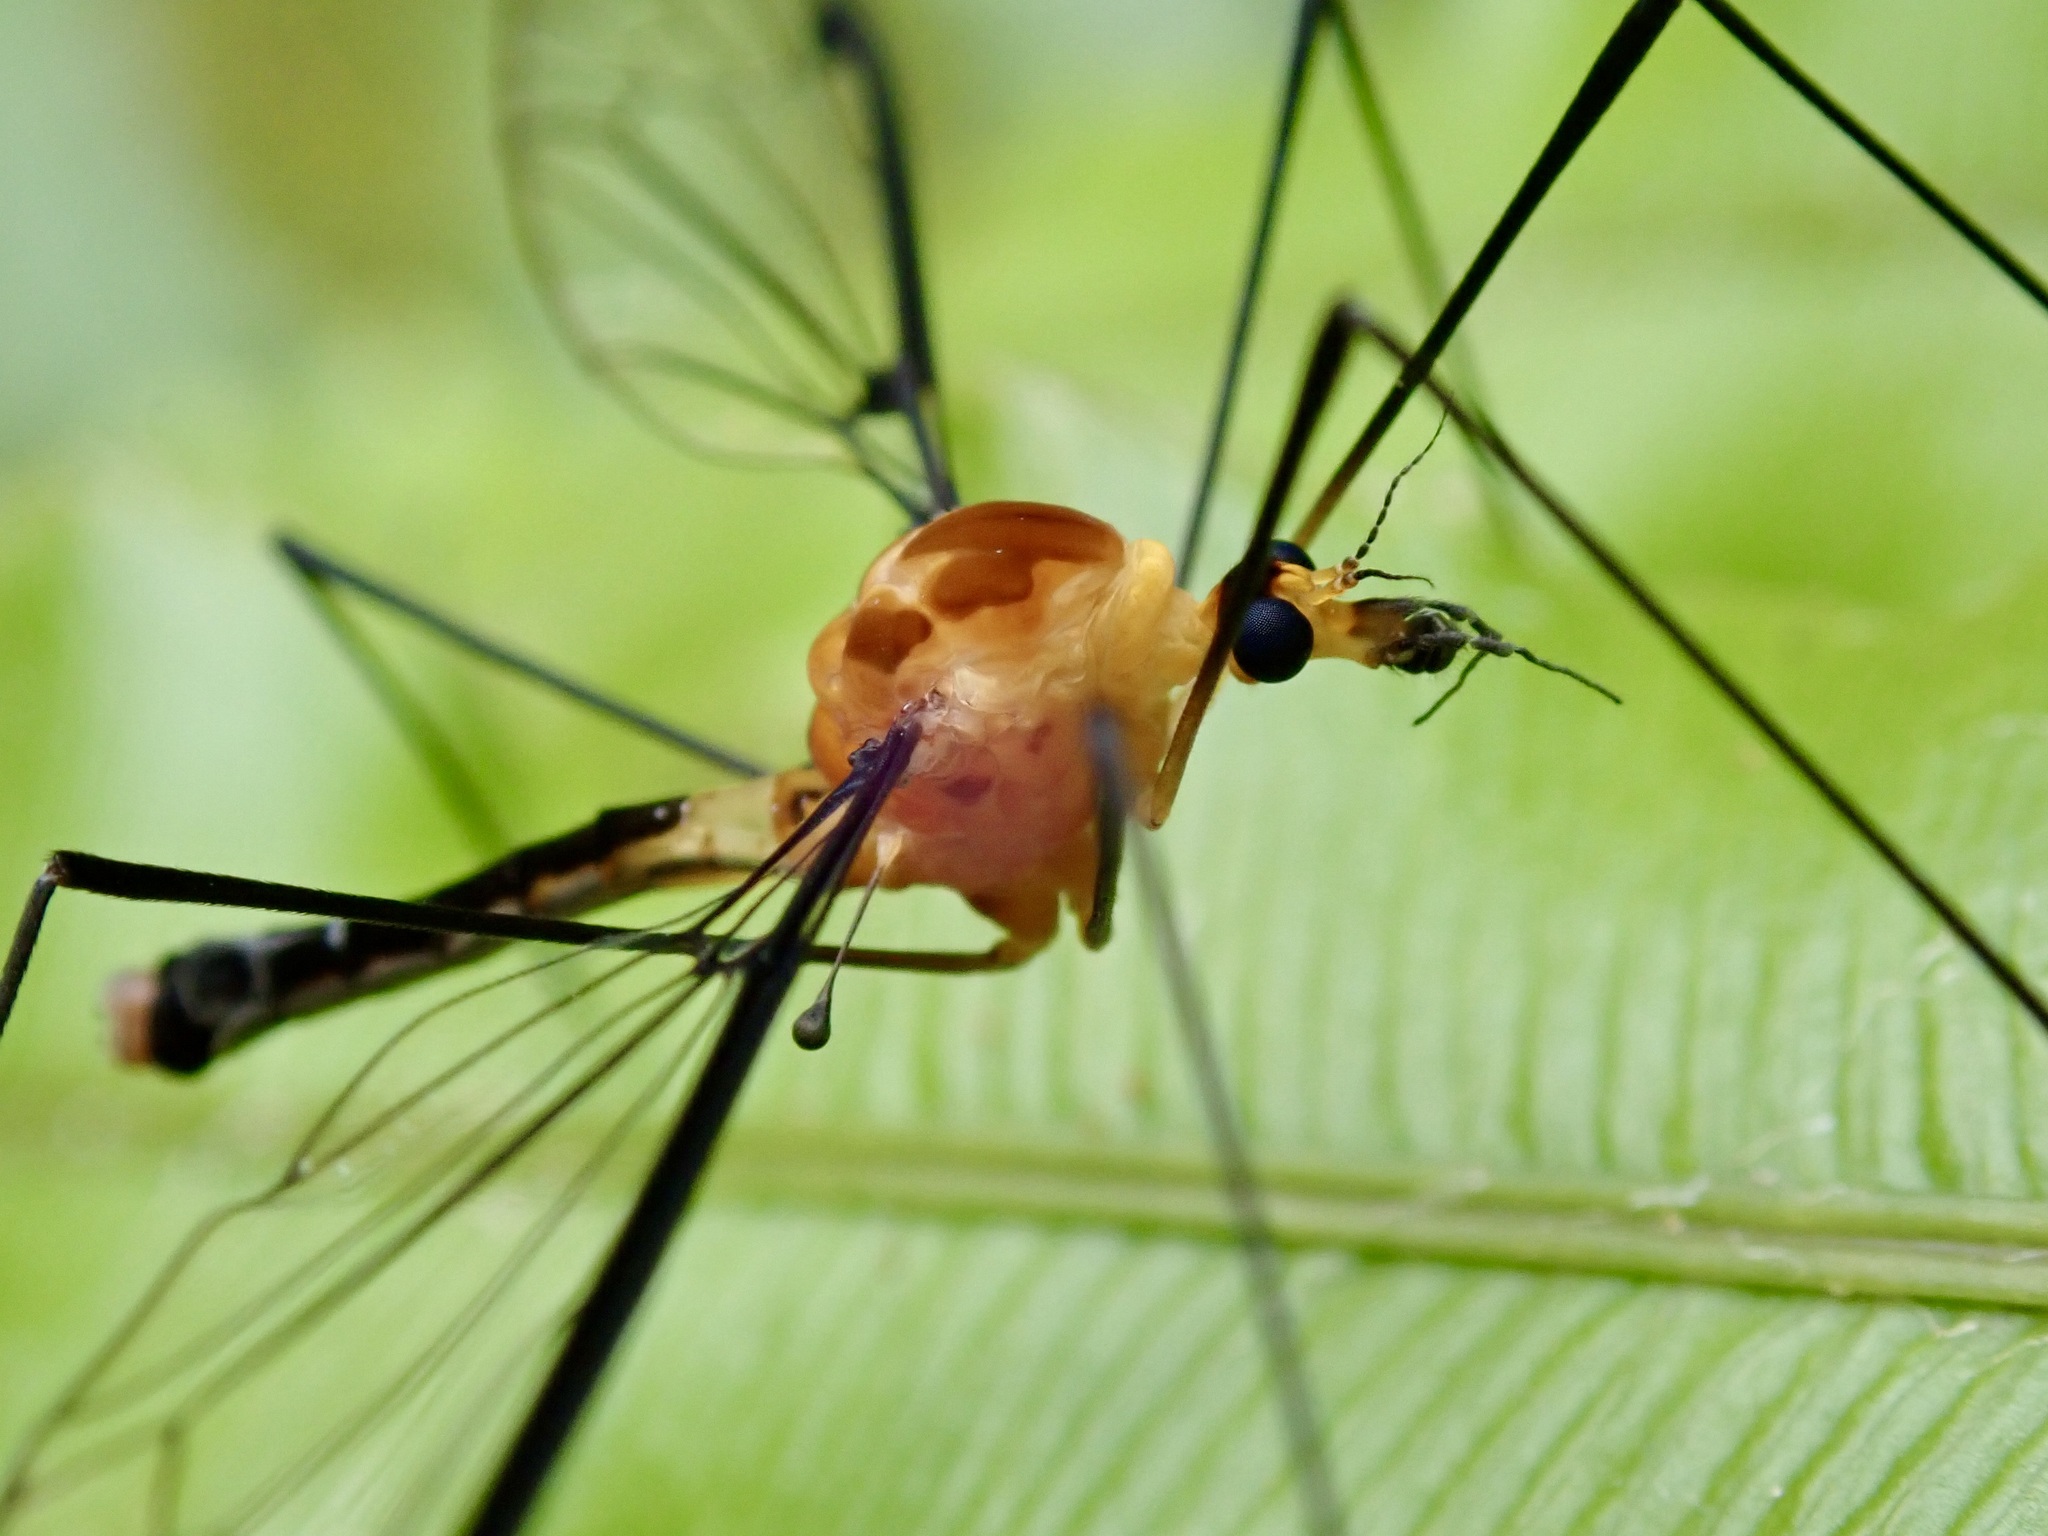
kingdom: Animalia
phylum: Arthropoda
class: Insecta
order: Diptera
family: Tipulidae
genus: Aurotipula
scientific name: Aurotipula
